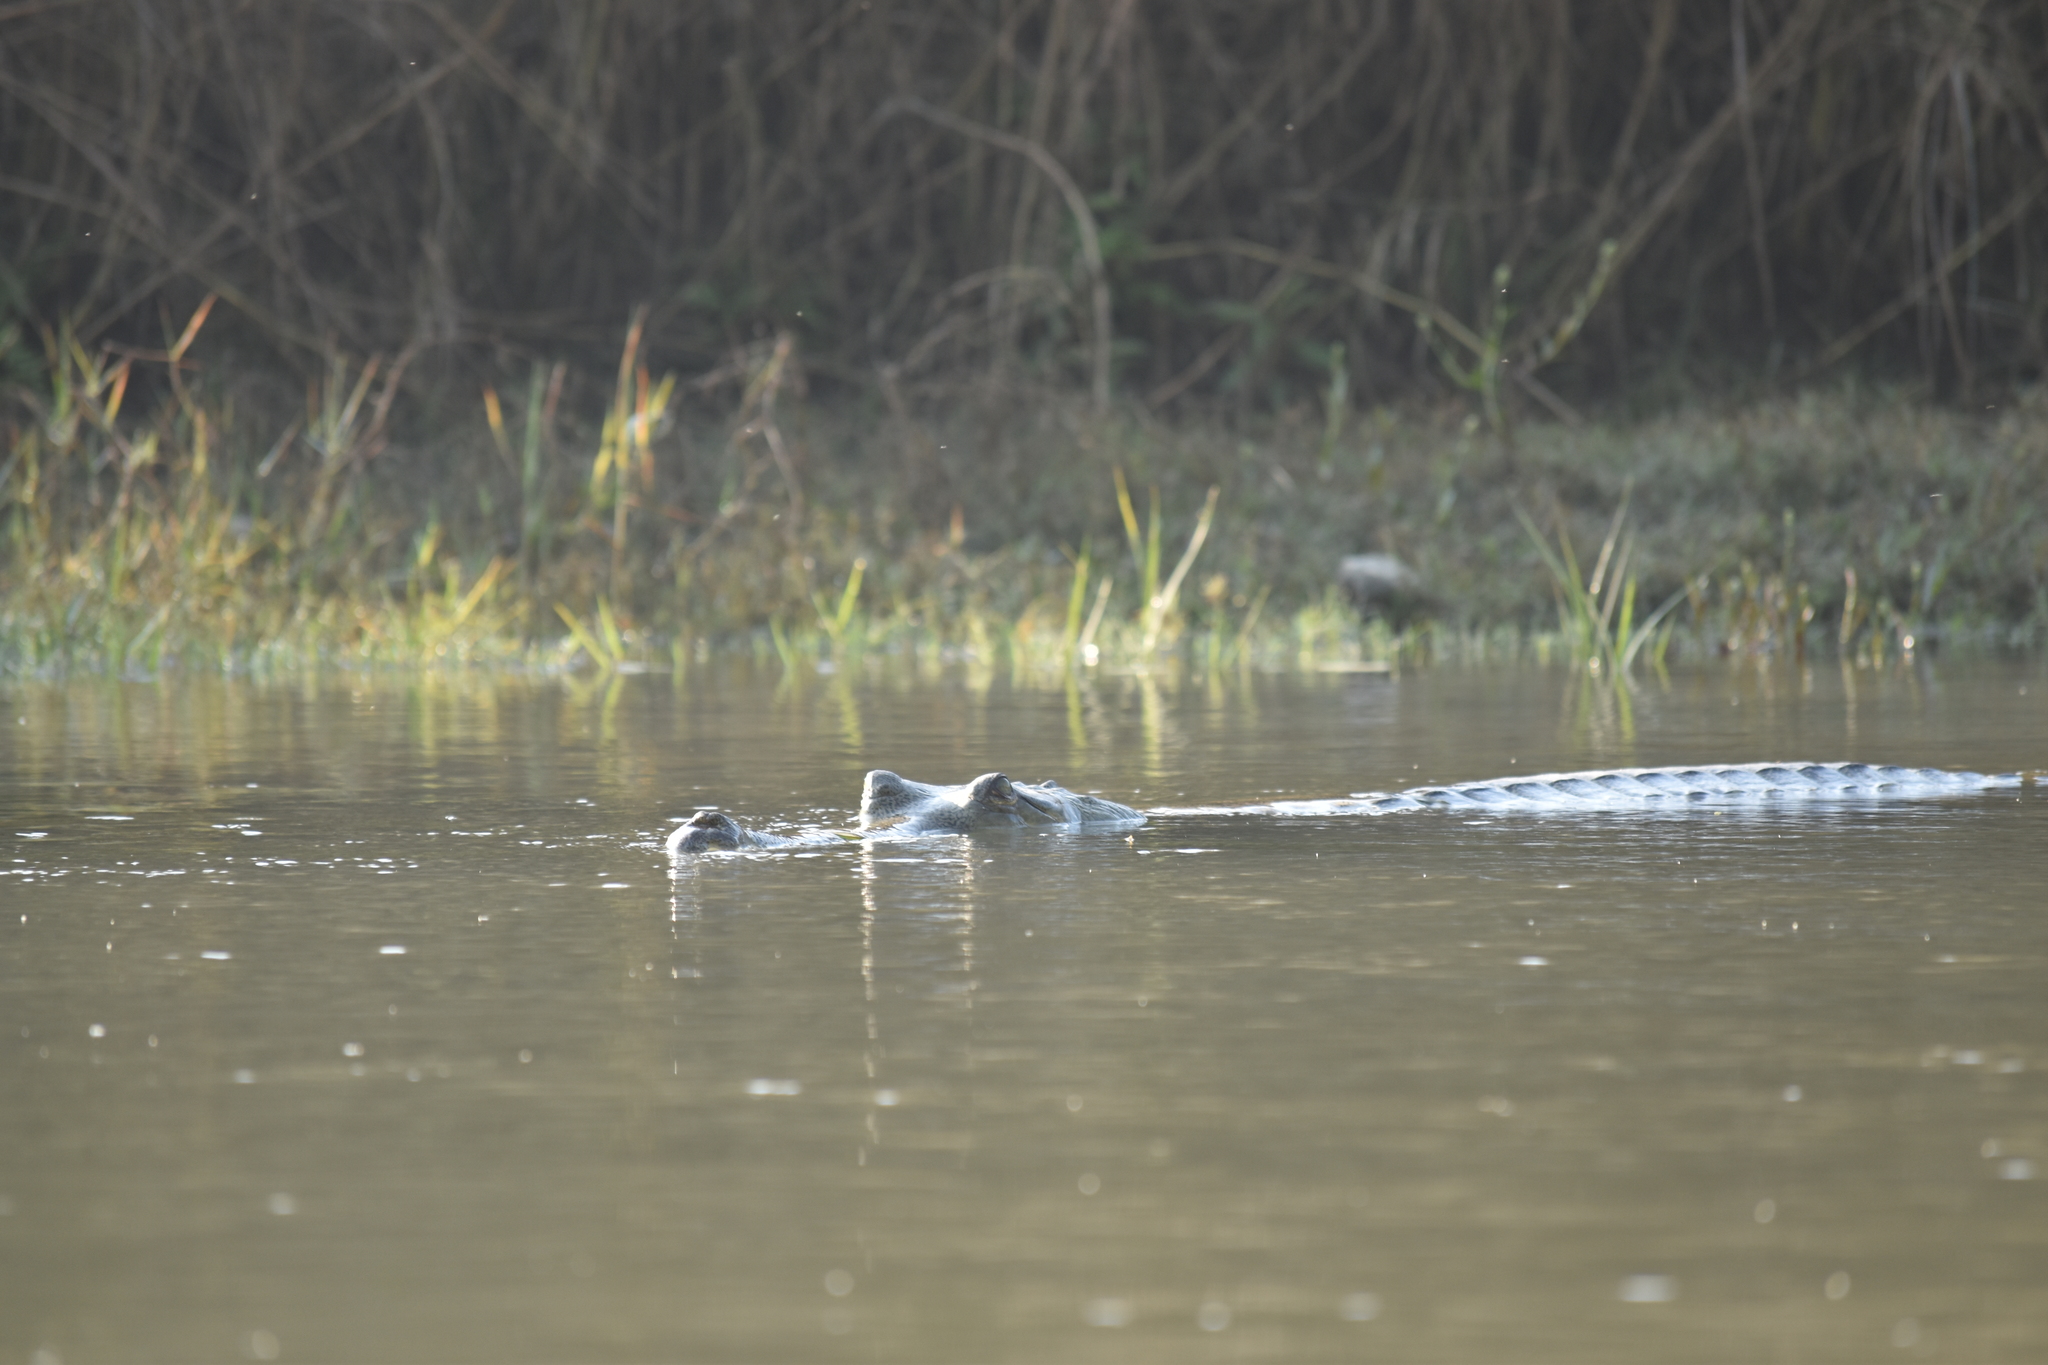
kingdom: Animalia
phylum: Chordata
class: Crocodylia
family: Gavialidae
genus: Gavialis
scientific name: Gavialis gangeticus
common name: Gharial
